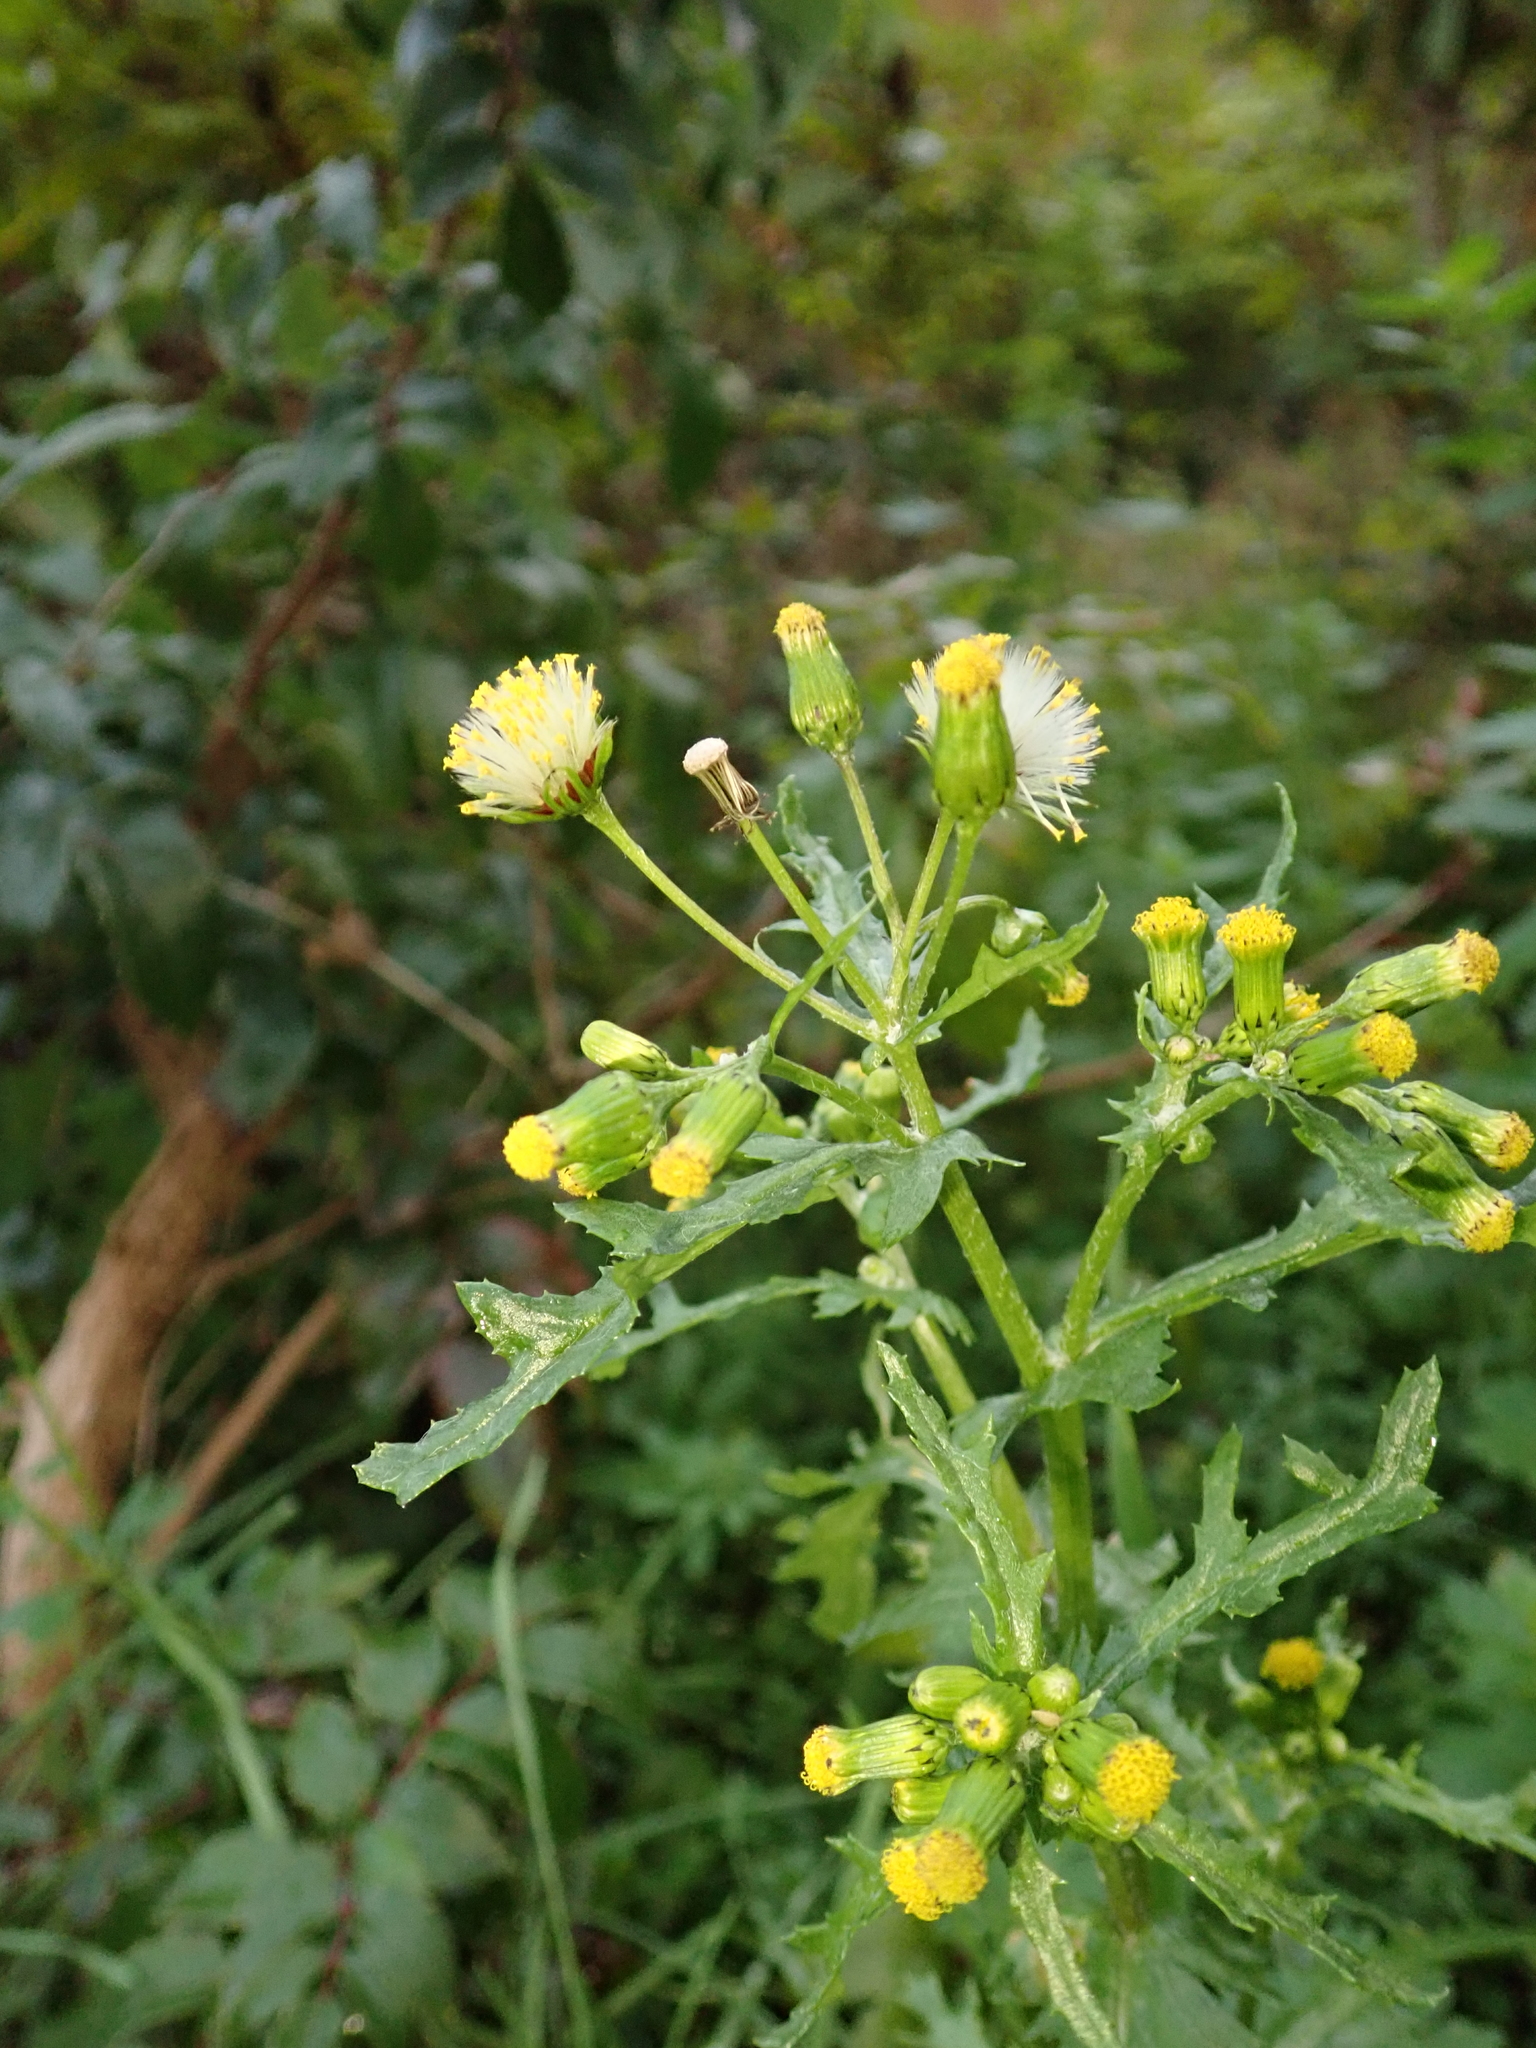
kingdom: Plantae
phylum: Tracheophyta
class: Magnoliopsida
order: Asterales
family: Asteraceae
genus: Senecio
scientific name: Senecio vulgaris
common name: Old-man-in-the-spring
